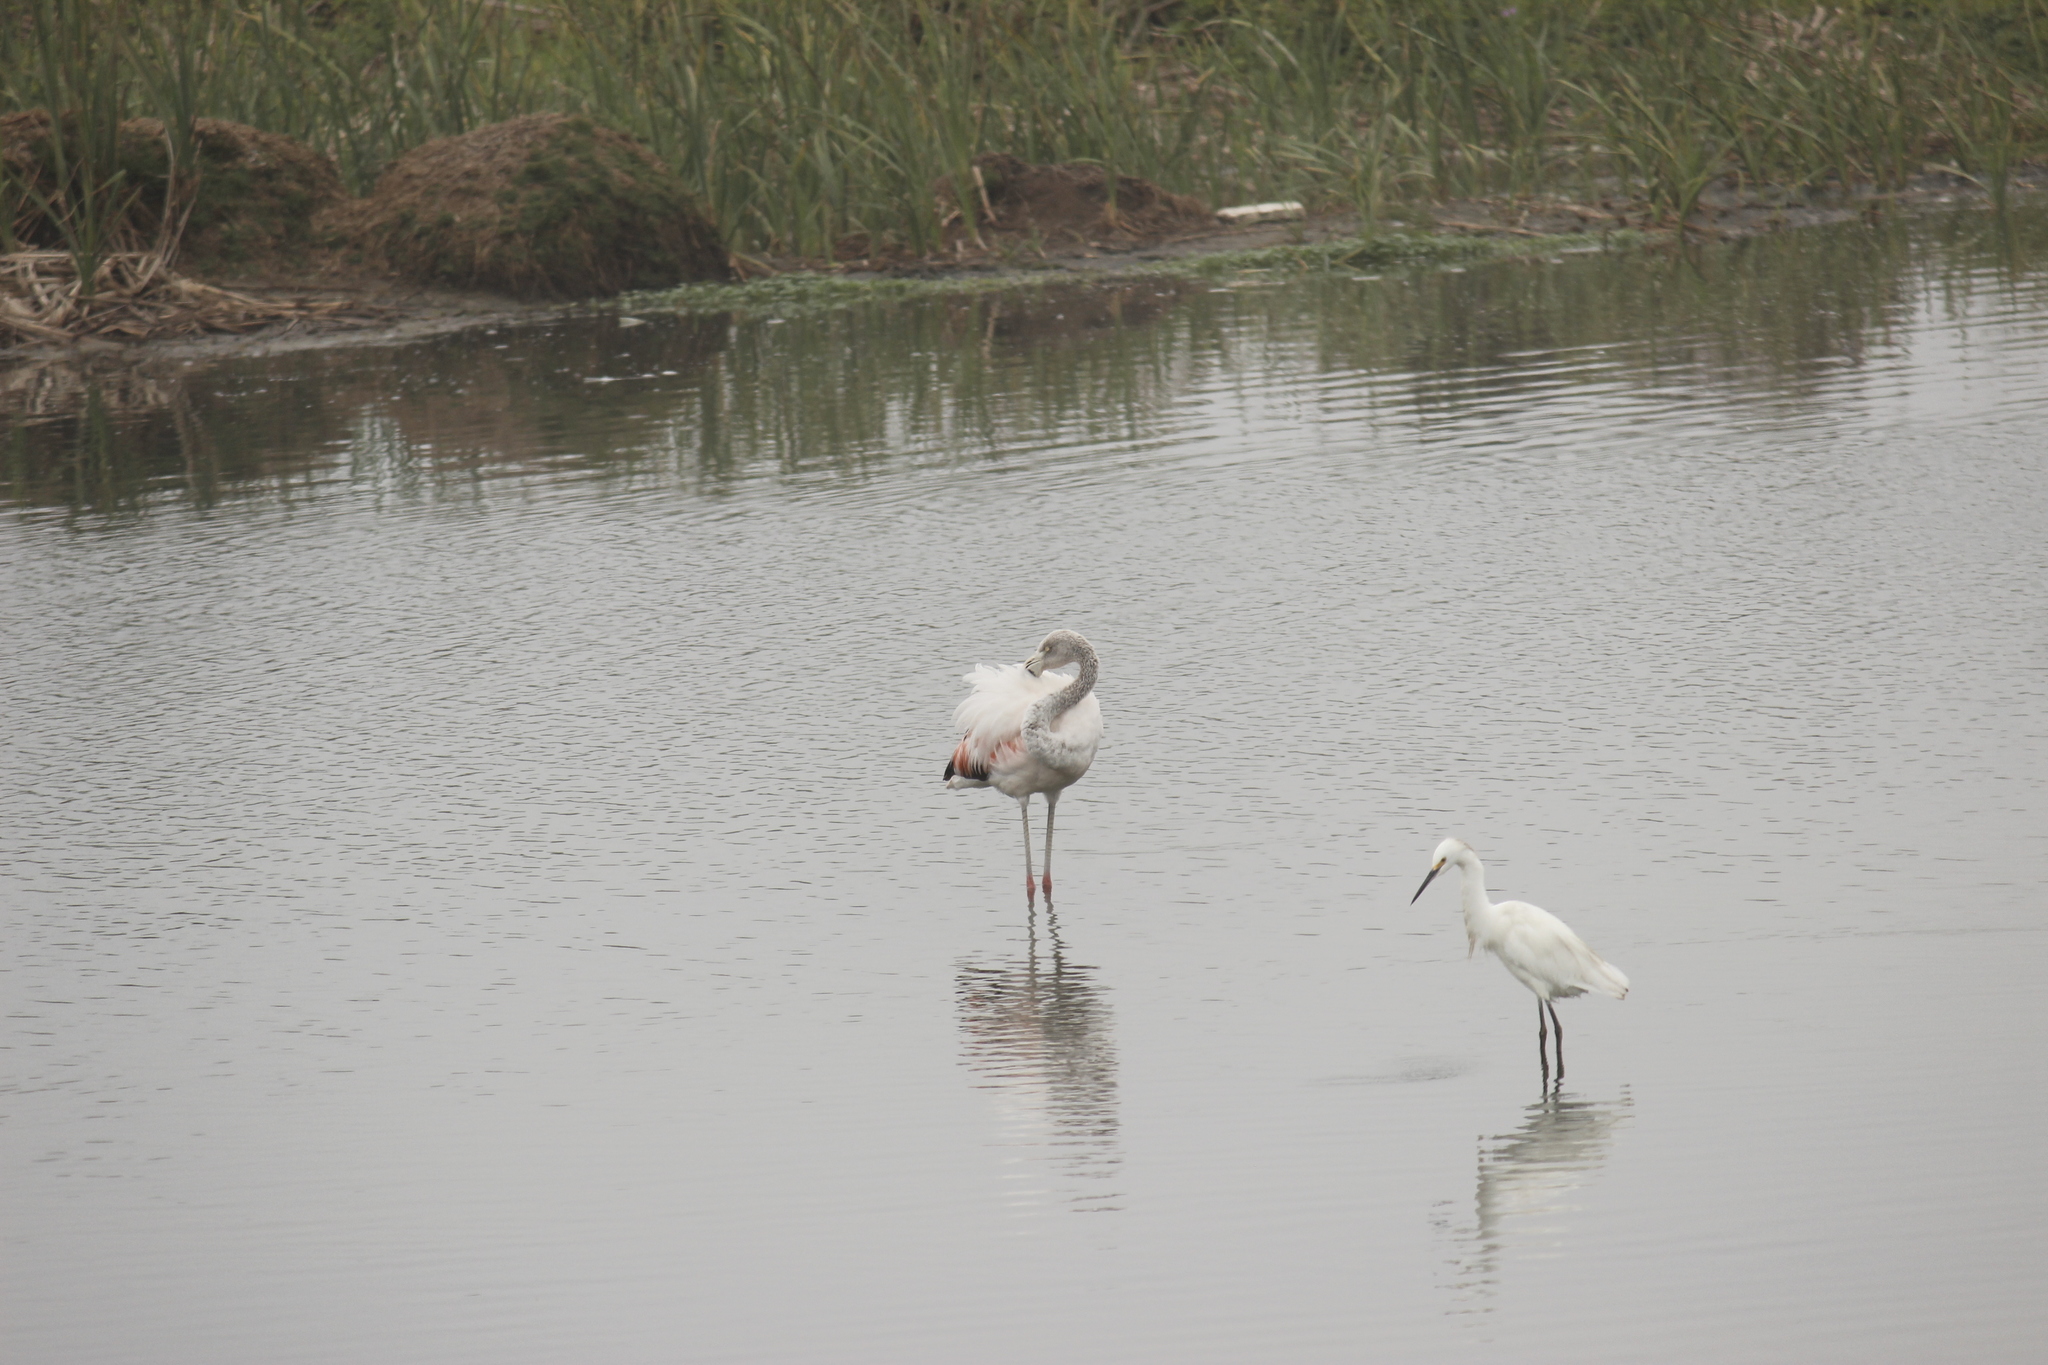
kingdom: Animalia
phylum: Chordata
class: Aves
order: Phoenicopteriformes
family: Phoenicopteridae
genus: Phoenicopterus
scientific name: Phoenicopterus chilensis
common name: Chilean flamingo
